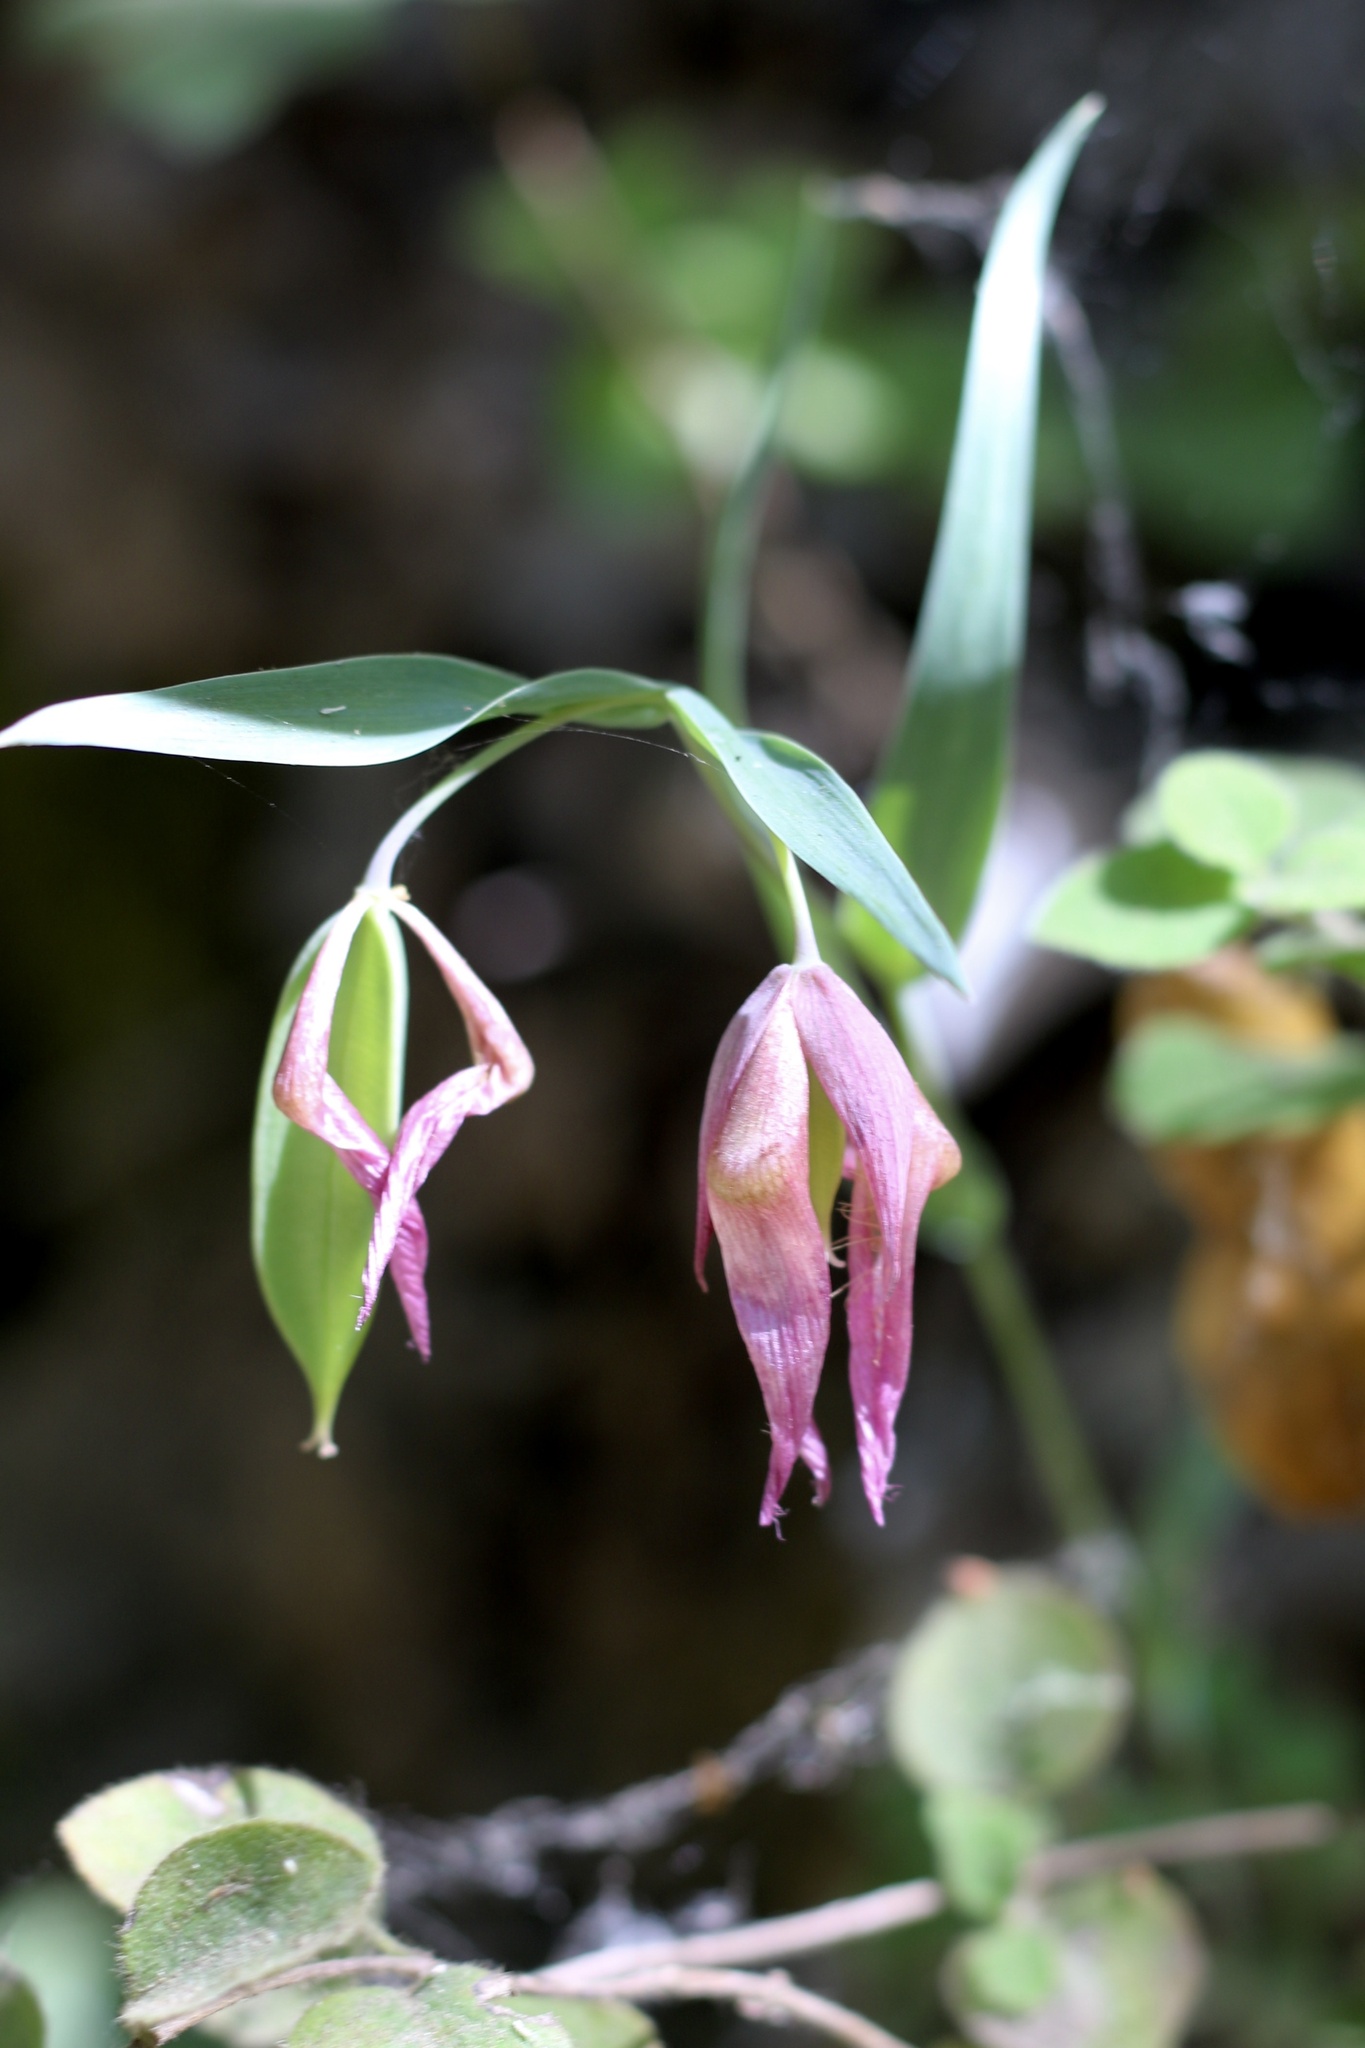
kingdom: Plantae
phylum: Tracheophyta
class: Liliopsida
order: Liliales
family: Liliaceae
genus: Calochortus
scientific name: Calochortus albus
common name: Fairy-lantern
